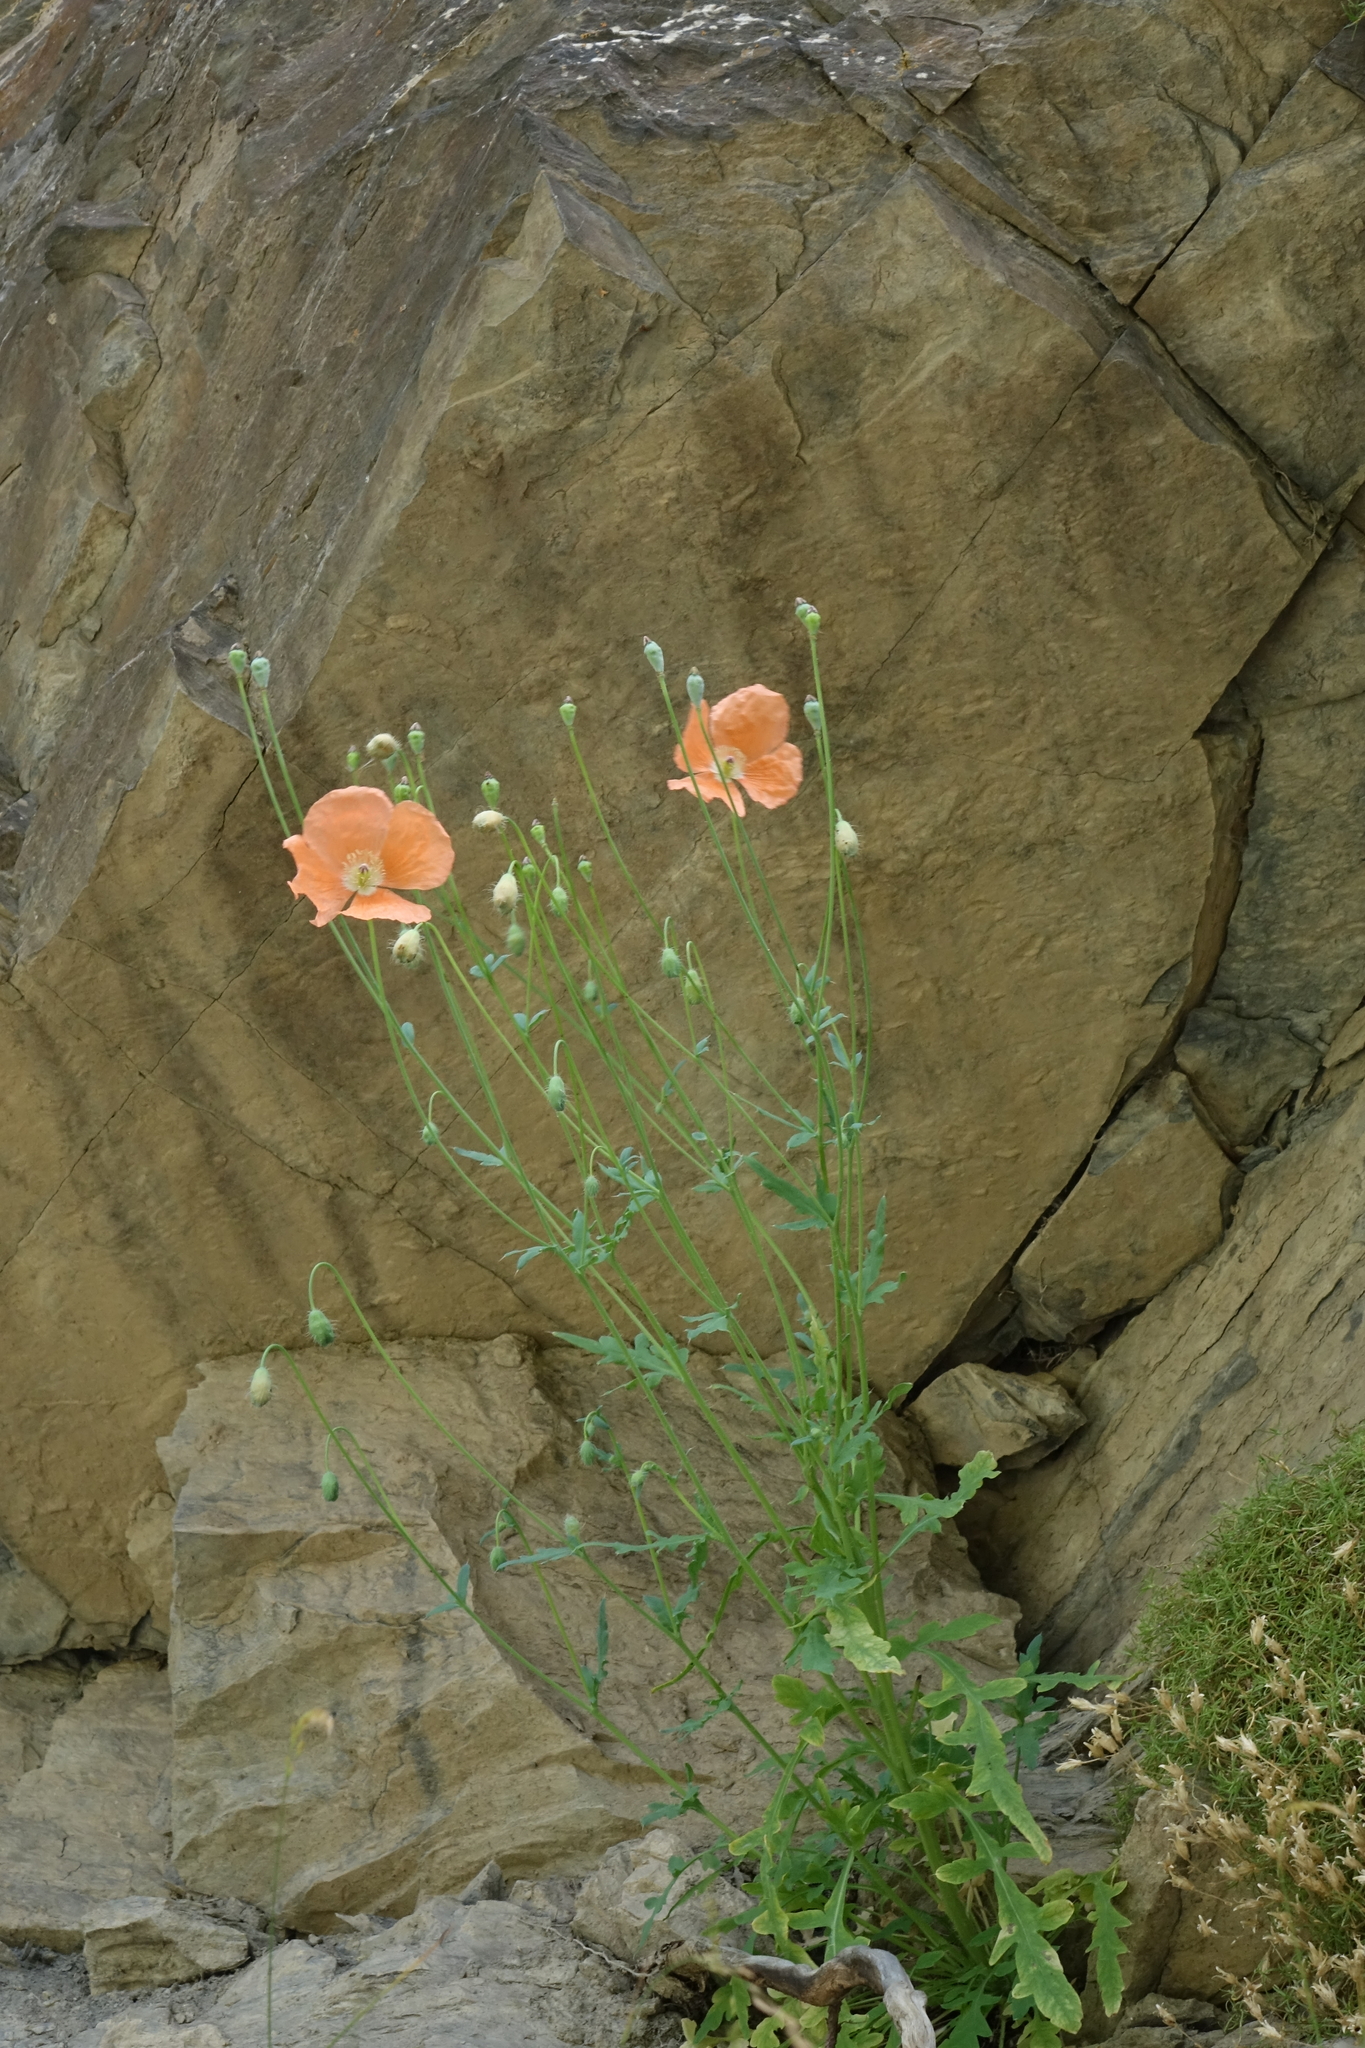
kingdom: Plantae
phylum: Tracheophyta
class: Magnoliopsida
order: Ranunculales
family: Papaveraceae
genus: Papaver
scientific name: Papaver armeniacum
